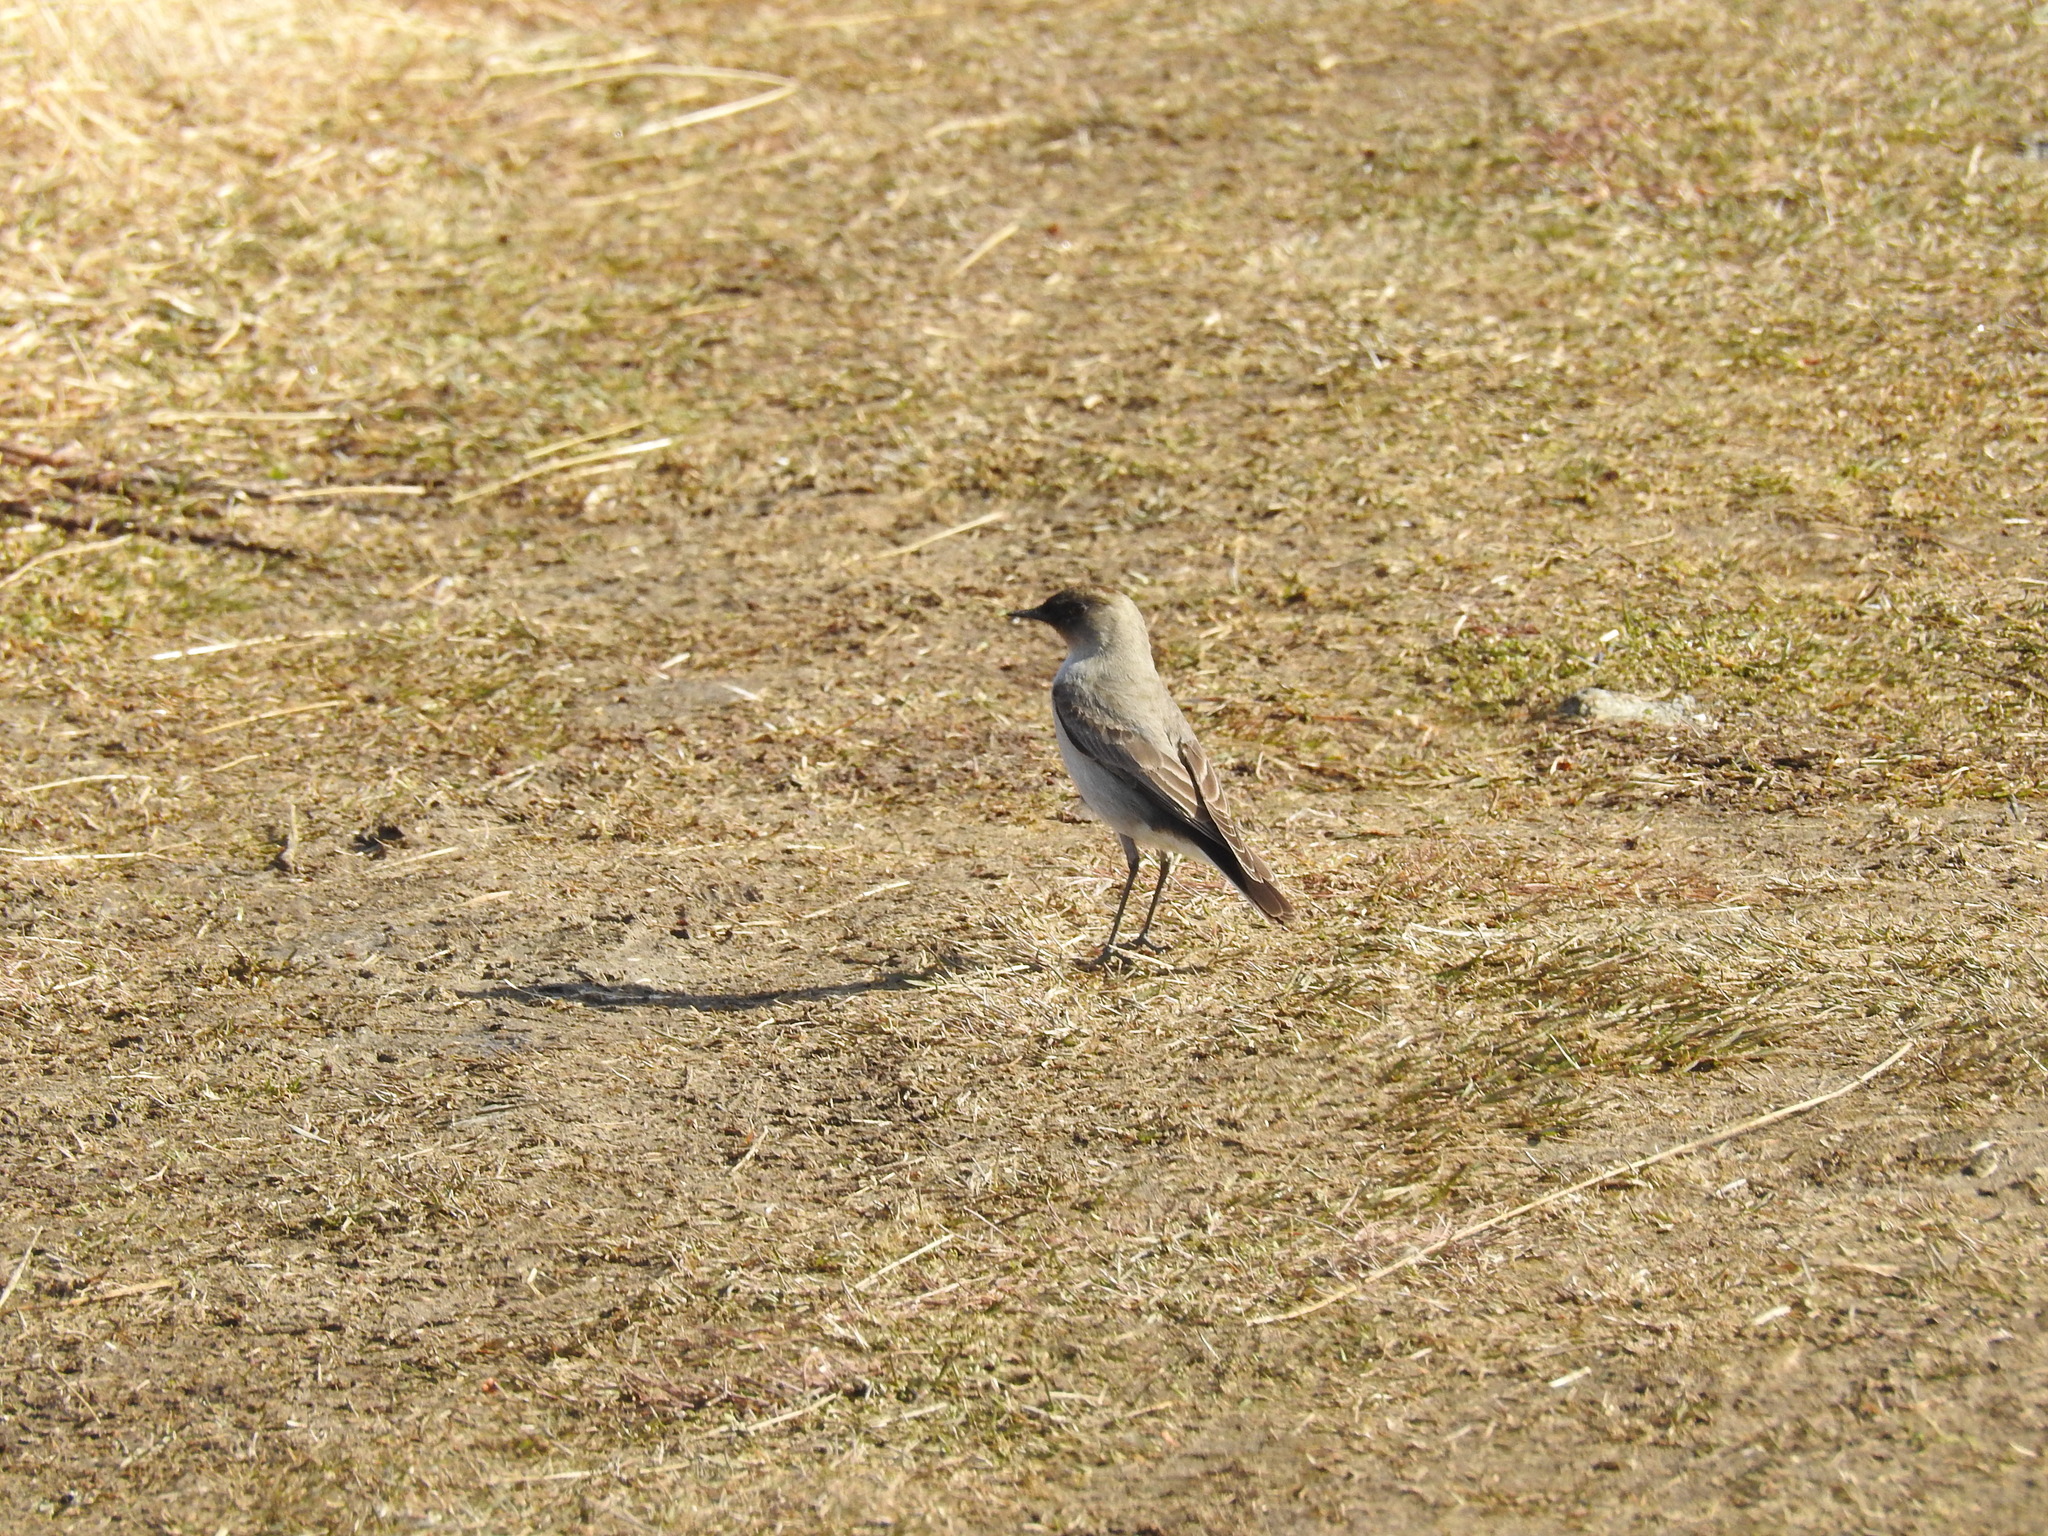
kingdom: Animalia
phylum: Chordata
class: Aves
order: Passeriformes
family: Tyrannidae
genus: Muscisaxicola
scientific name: Muscisaxicola maclovianus
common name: Dark-faced ground tyrant
